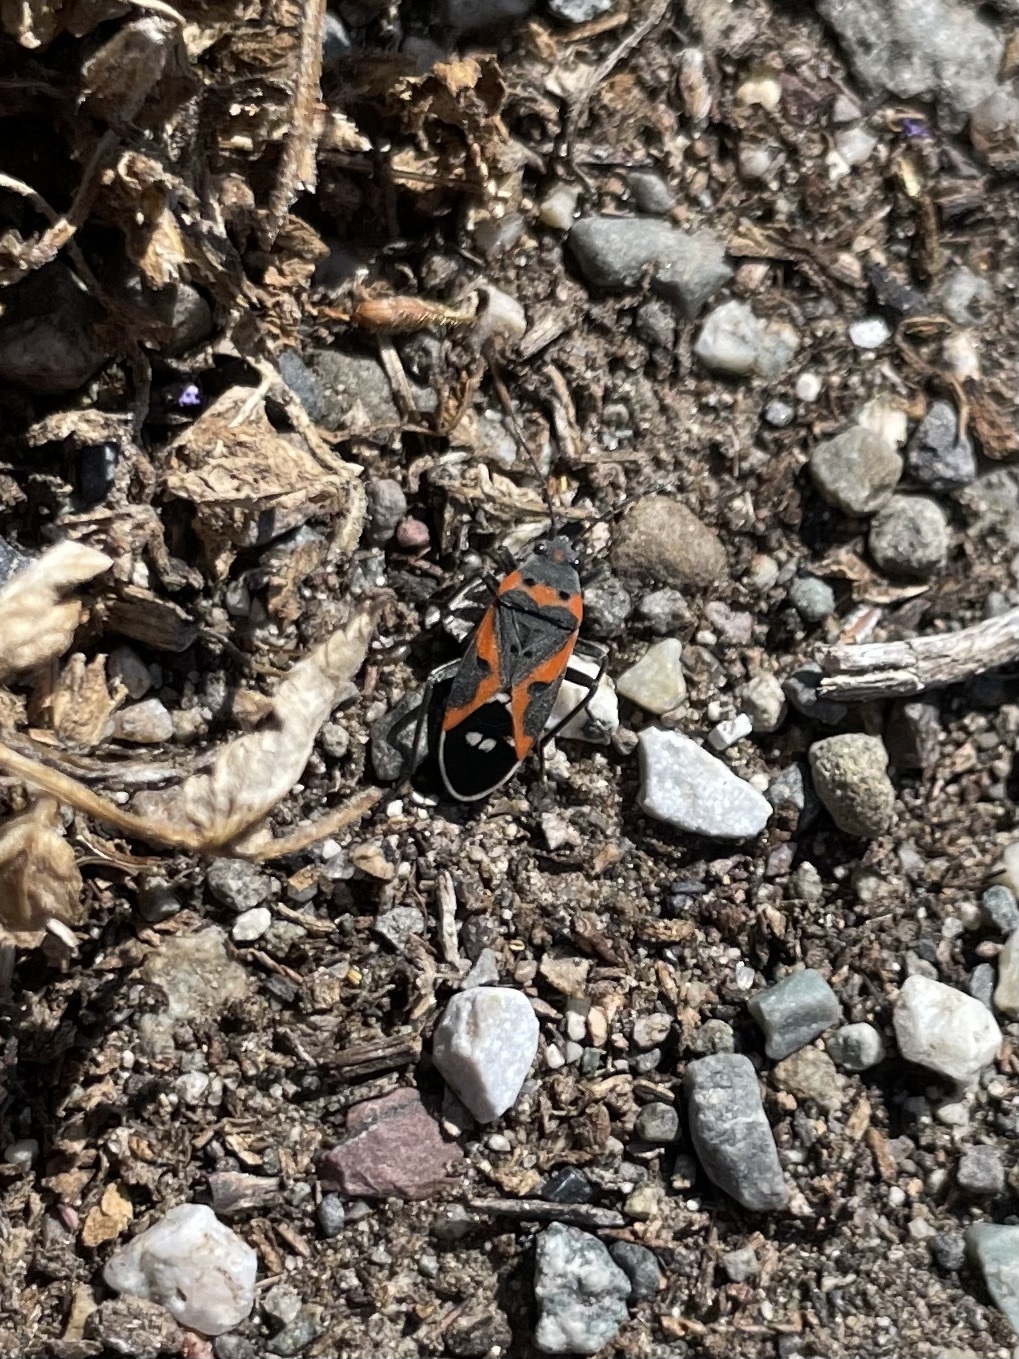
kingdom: Animalia
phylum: Arthropoda
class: Insecta
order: Hemiptera
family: Lygaeidae
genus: Lygaeus
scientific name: Lygaeus kalmii
